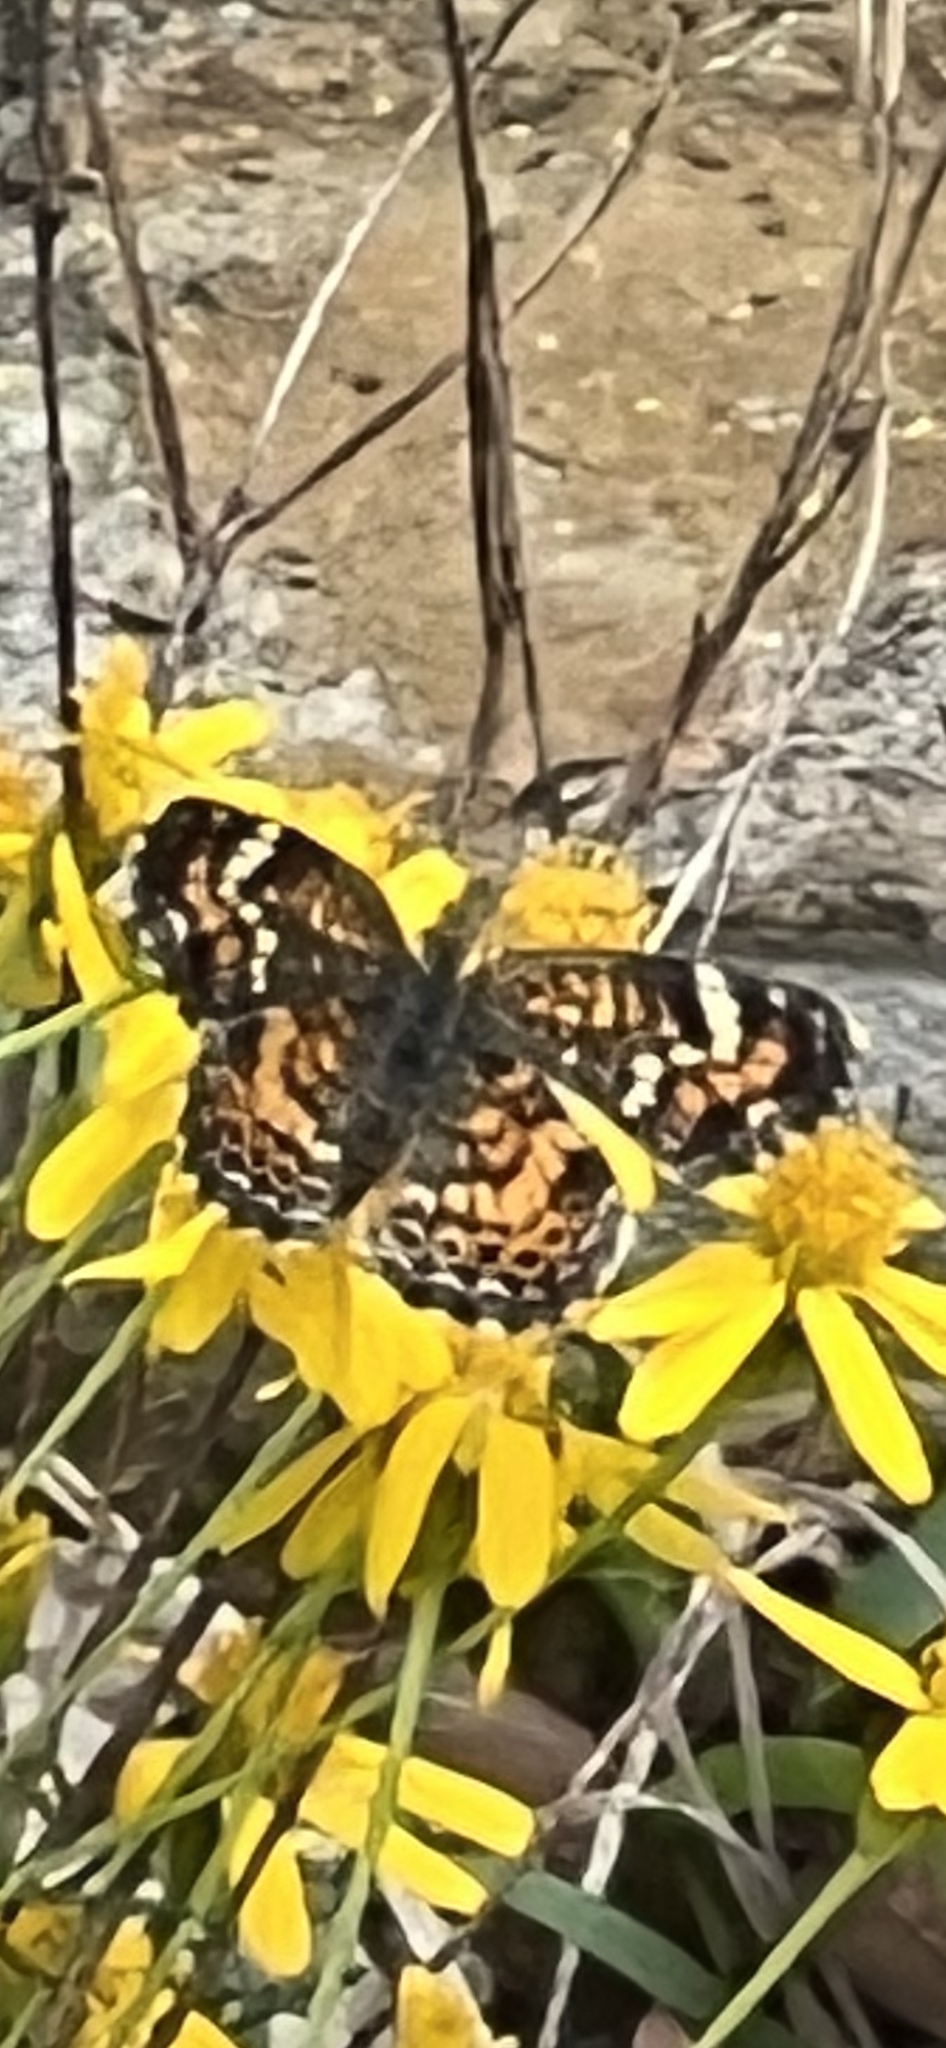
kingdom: Animalia
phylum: Arthropoda
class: Insecta
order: Lepidoptera
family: Nymphalidae
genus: Phyciodes
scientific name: Phyciodes phaon
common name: Phaon crescent
